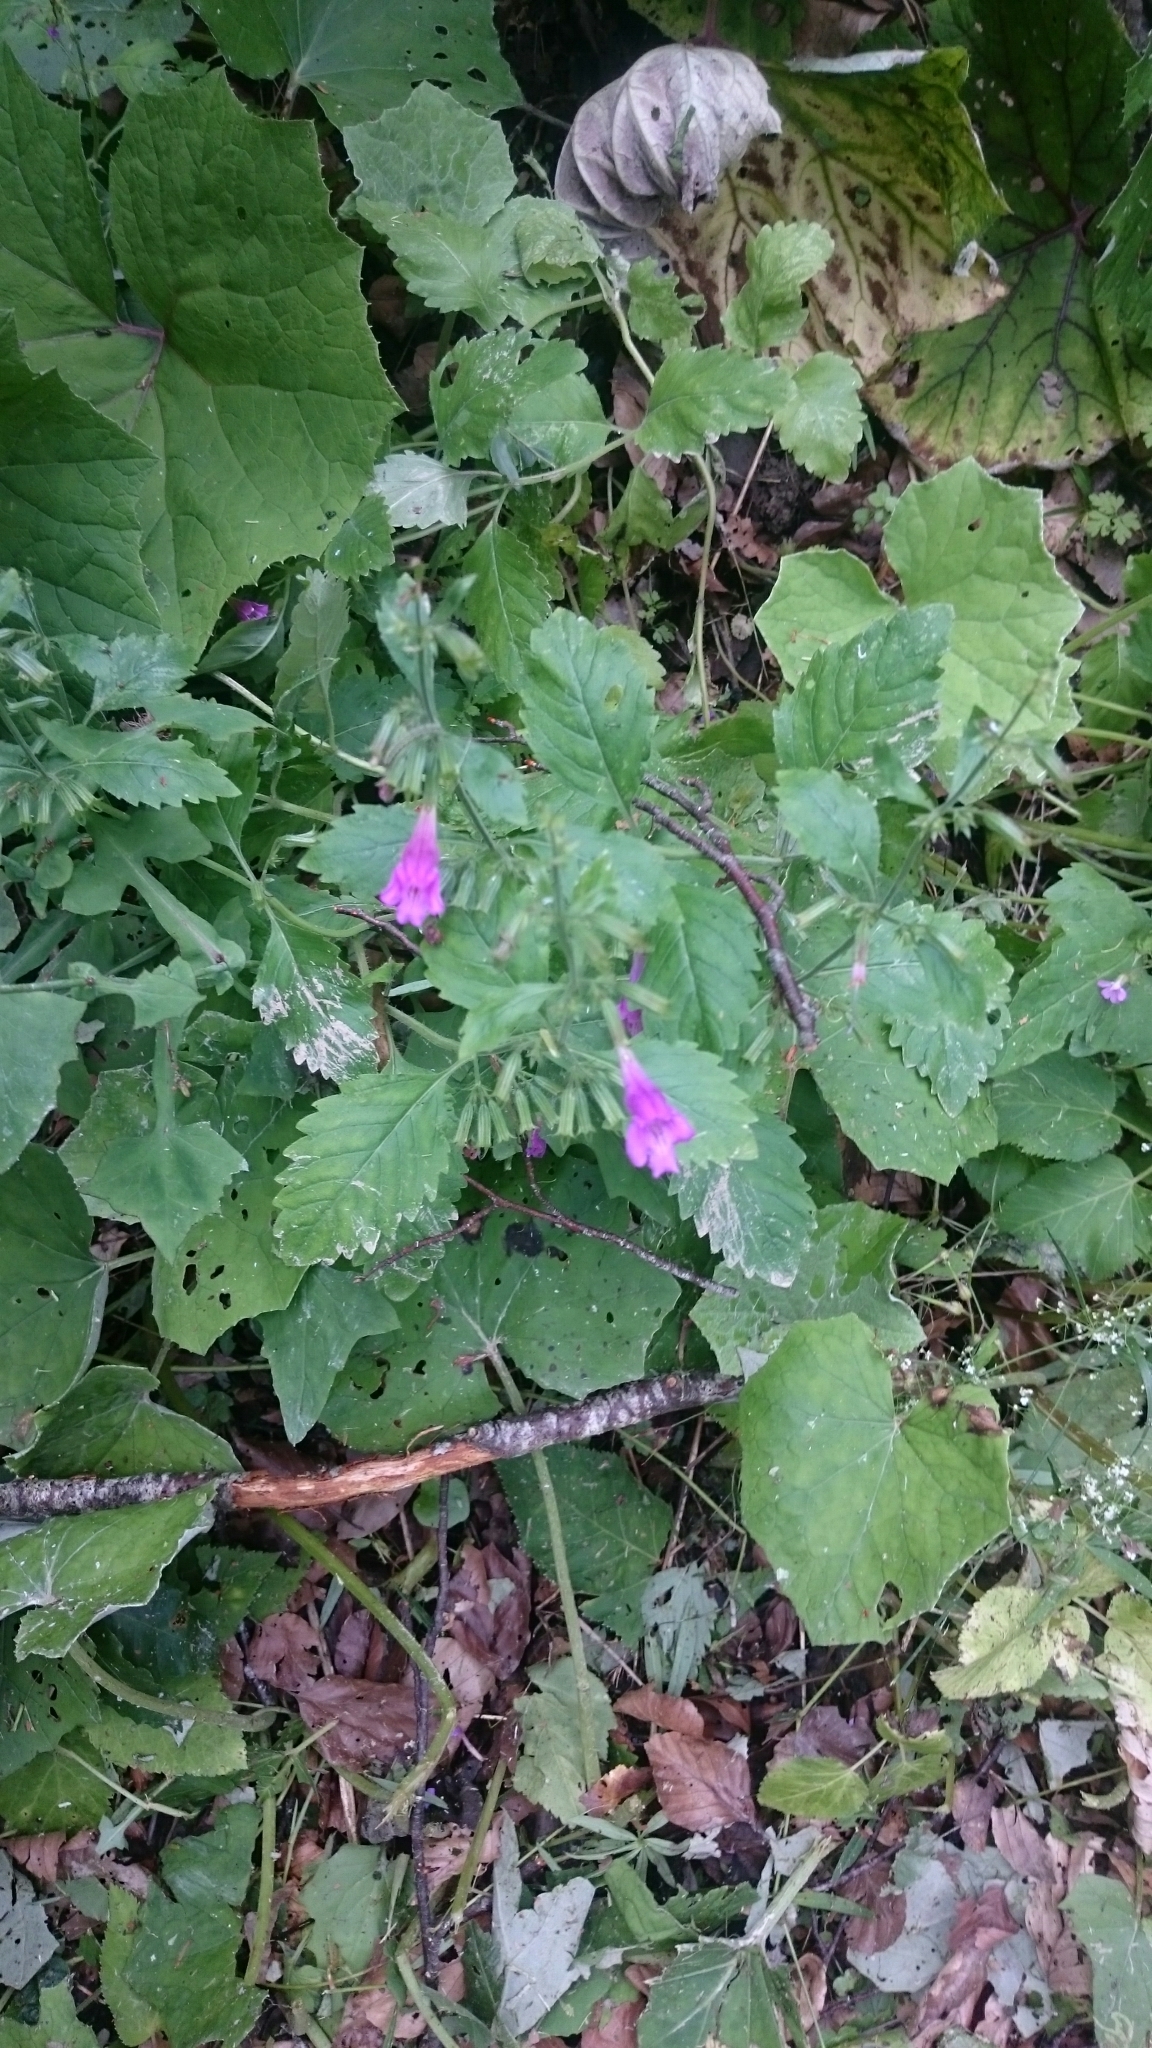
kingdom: Plantae
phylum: Tracheophyta
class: Magnoliopsida
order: Lamiales
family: Lamiaceae
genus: Clinopodium
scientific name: Clinopodium grandiflorum
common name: Greater calamint
